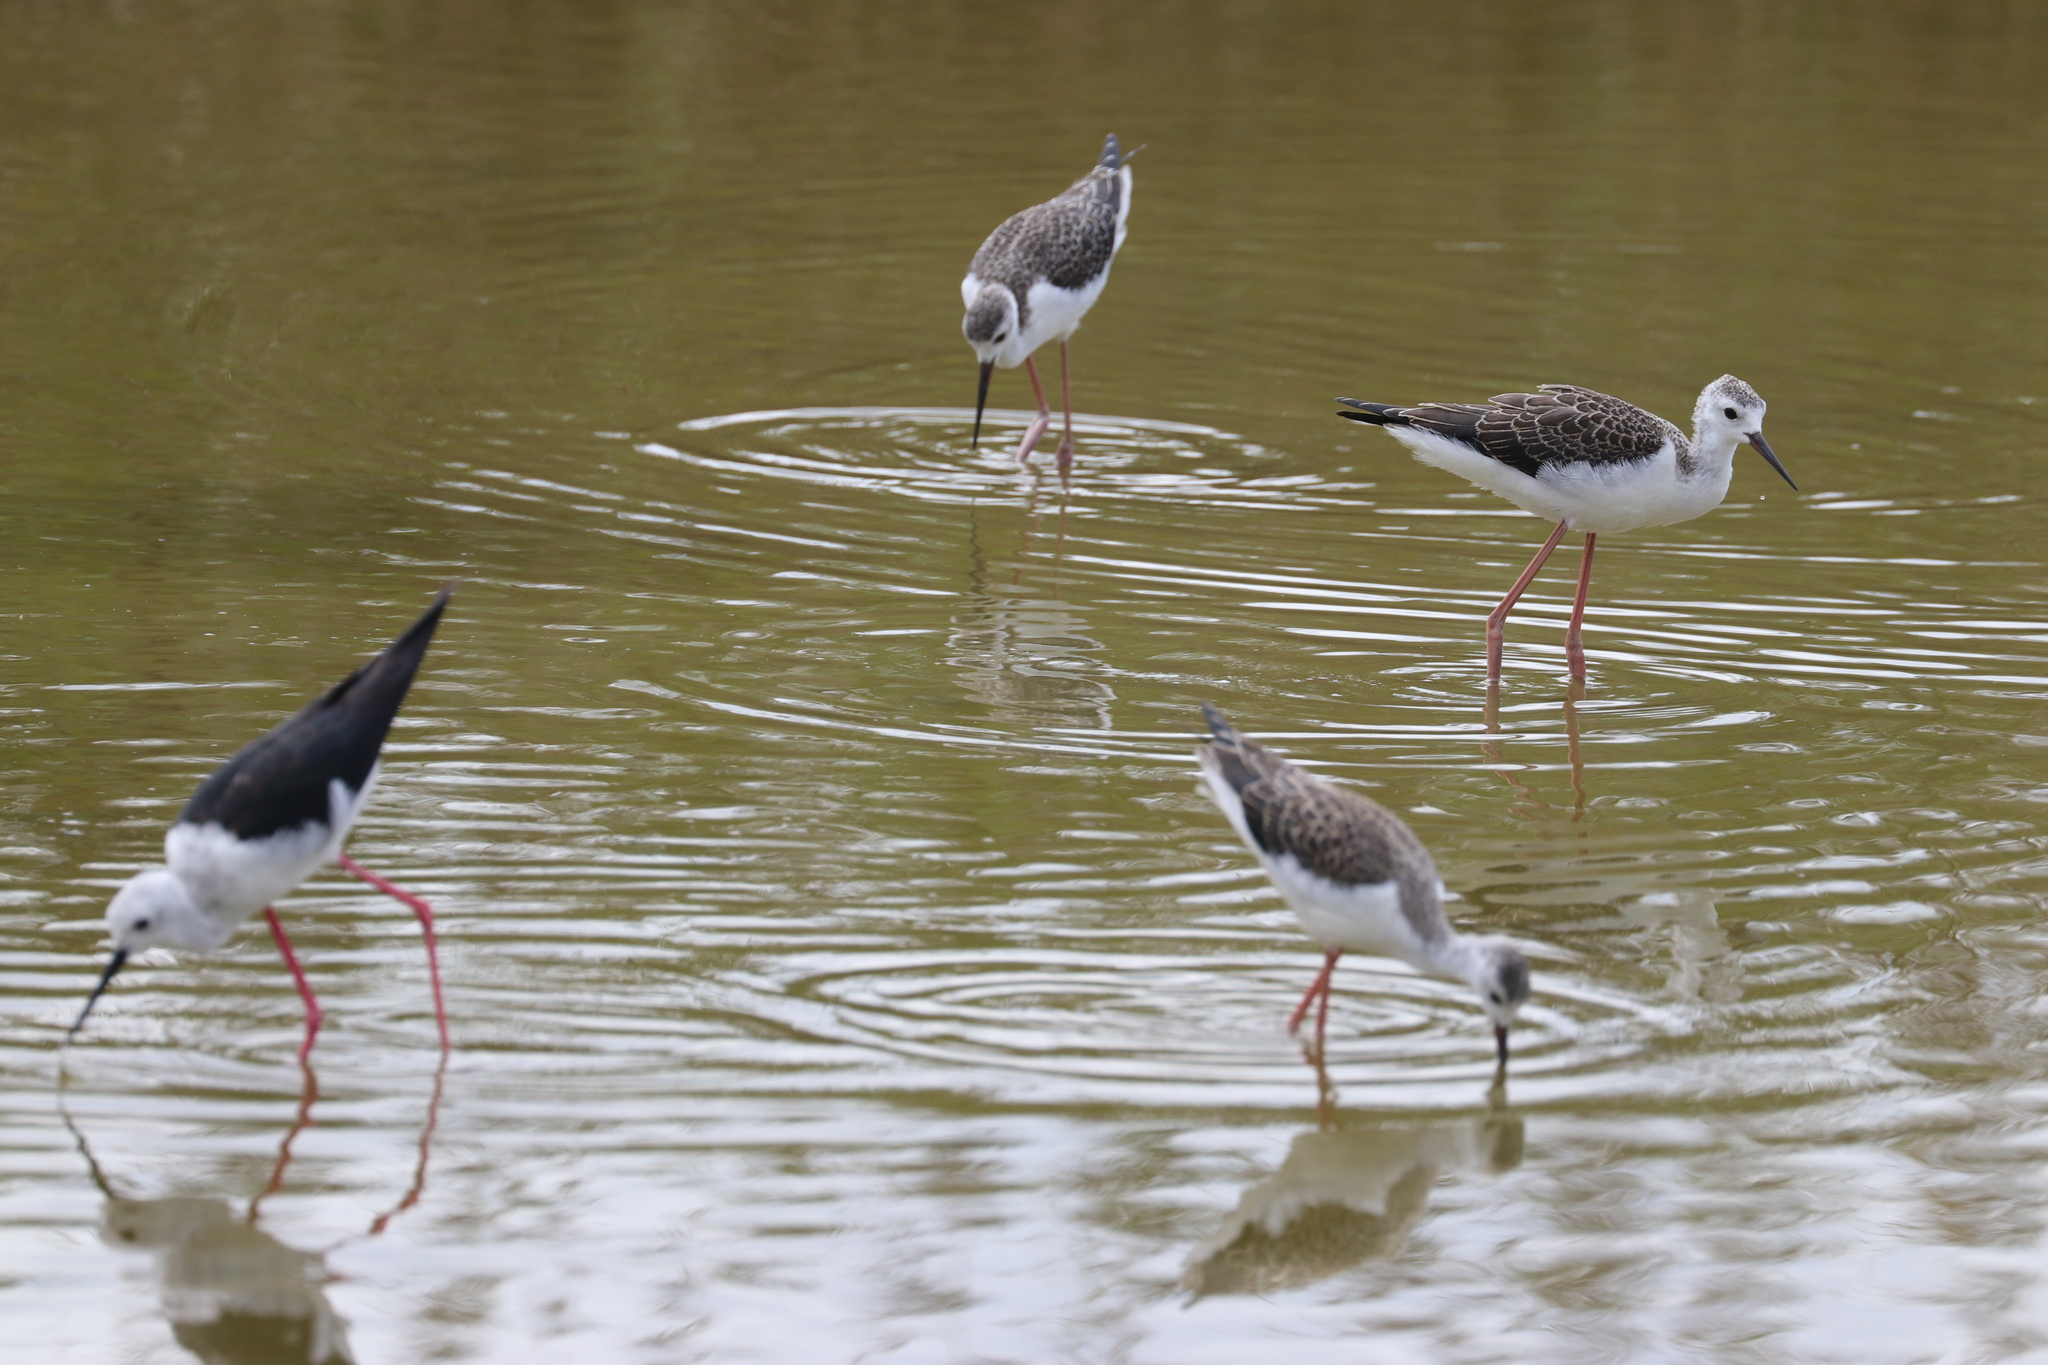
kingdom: Animalia
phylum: Chordata
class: Aves
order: Charadriiformes
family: Recurvirostridae
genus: Himantopus
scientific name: Himantopus himantopus
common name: Black-winged stilt
